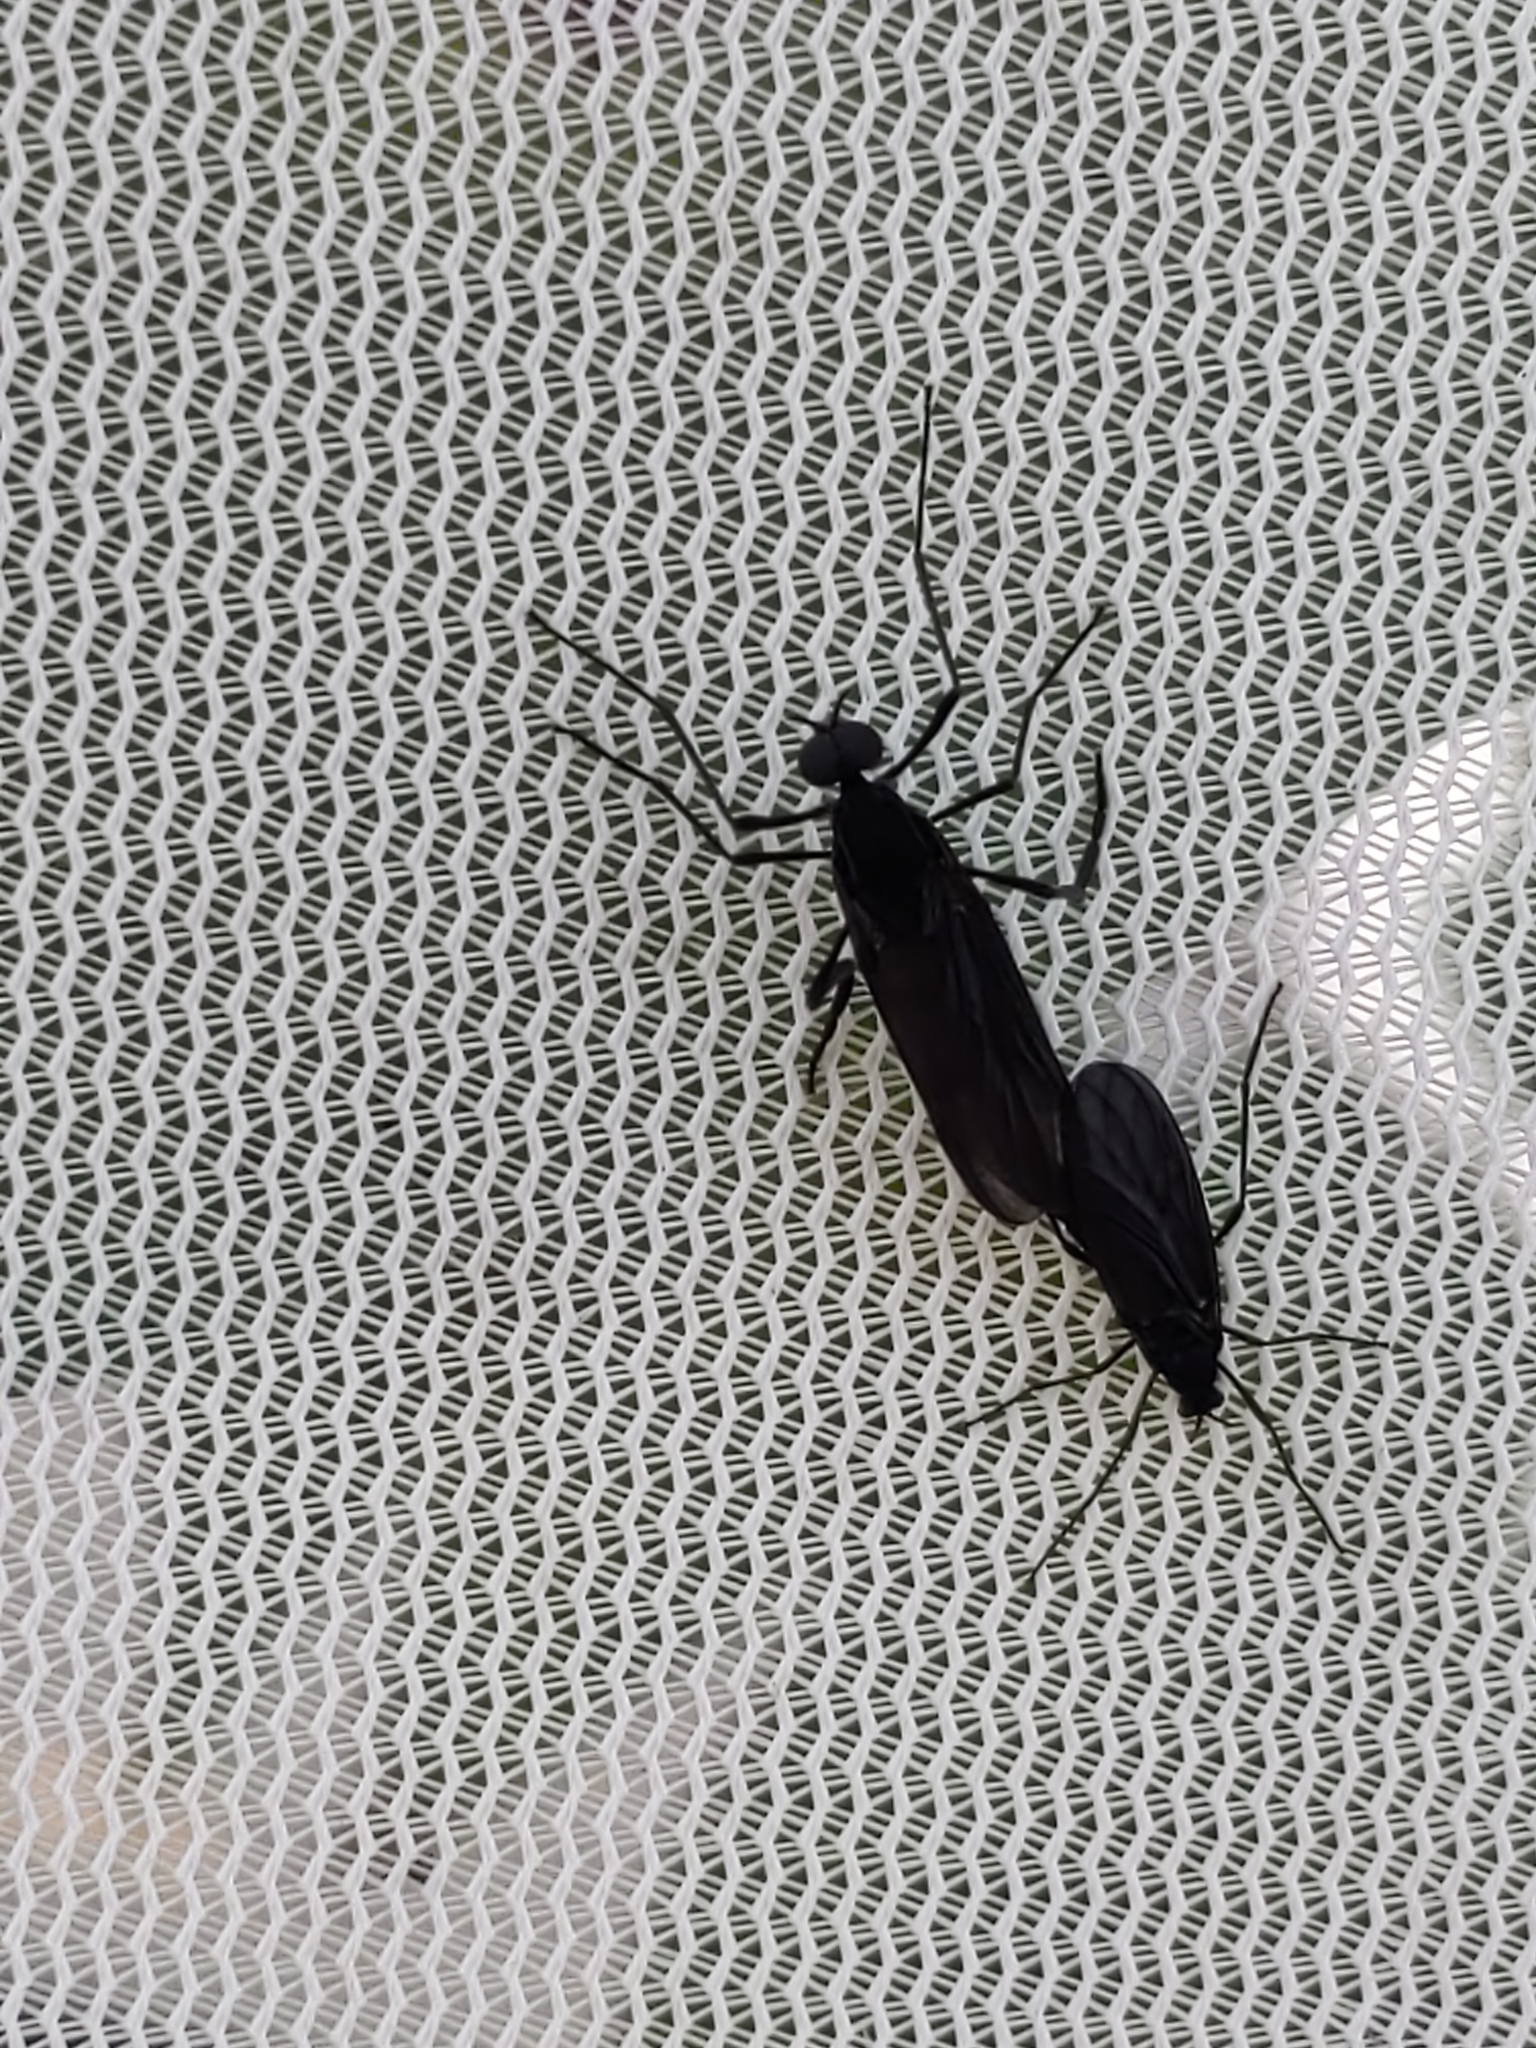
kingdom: Animalia
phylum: Arthropoda
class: Insecta
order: Diptera
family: Bibionidae
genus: Penthetria
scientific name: Penthetria heteroptera
